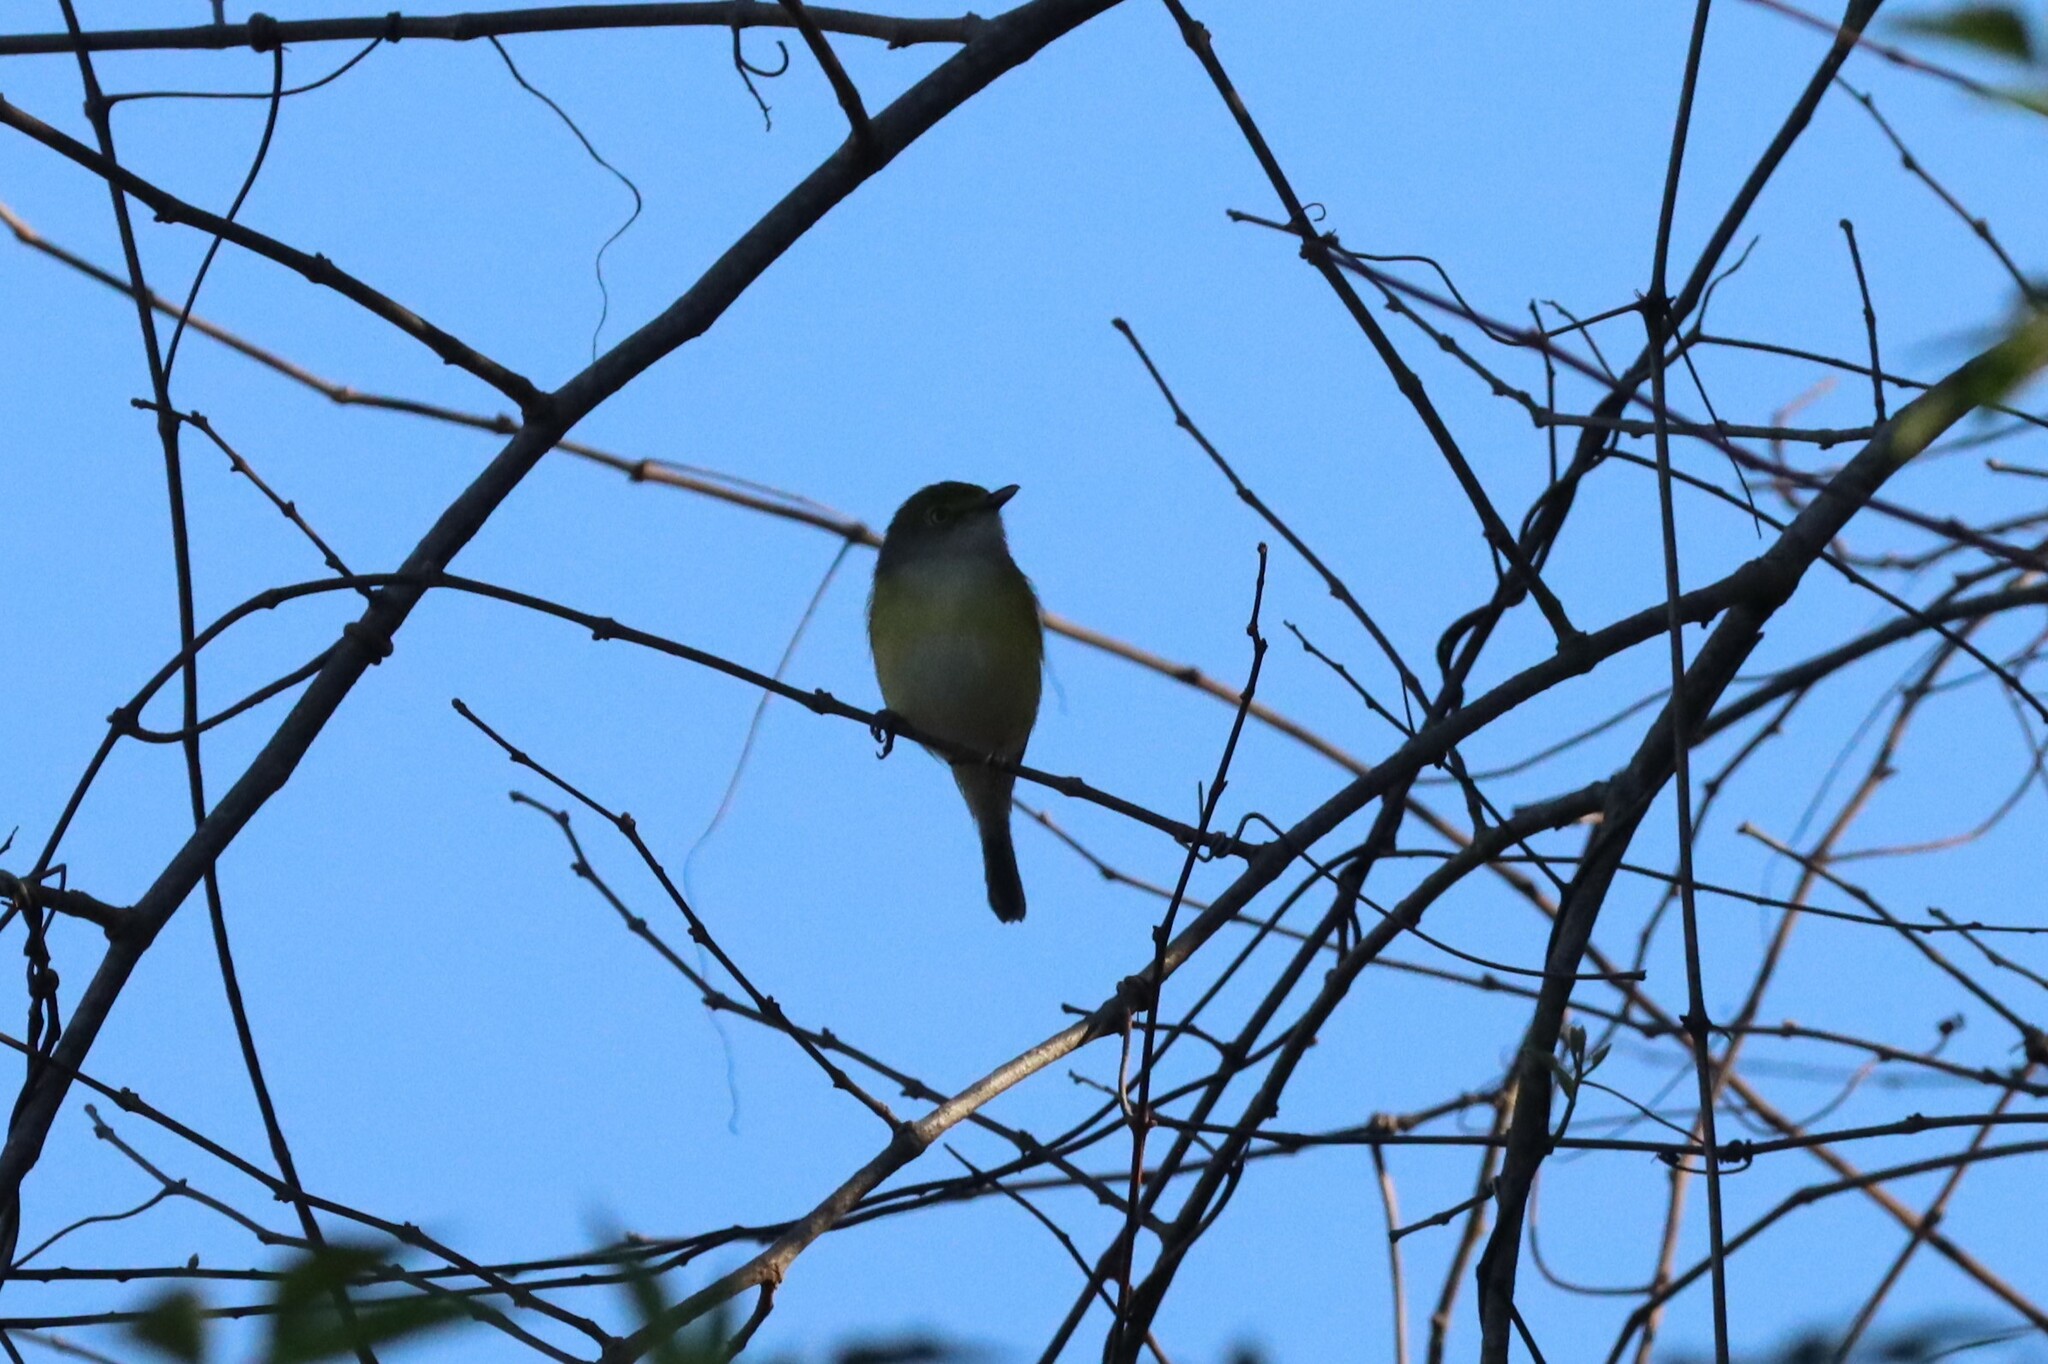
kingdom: Animalia
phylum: Chordata
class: Aves
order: Passeriformes
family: Vireonidae
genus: Vireo
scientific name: Vireo griseus
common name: White-eyed vireo
